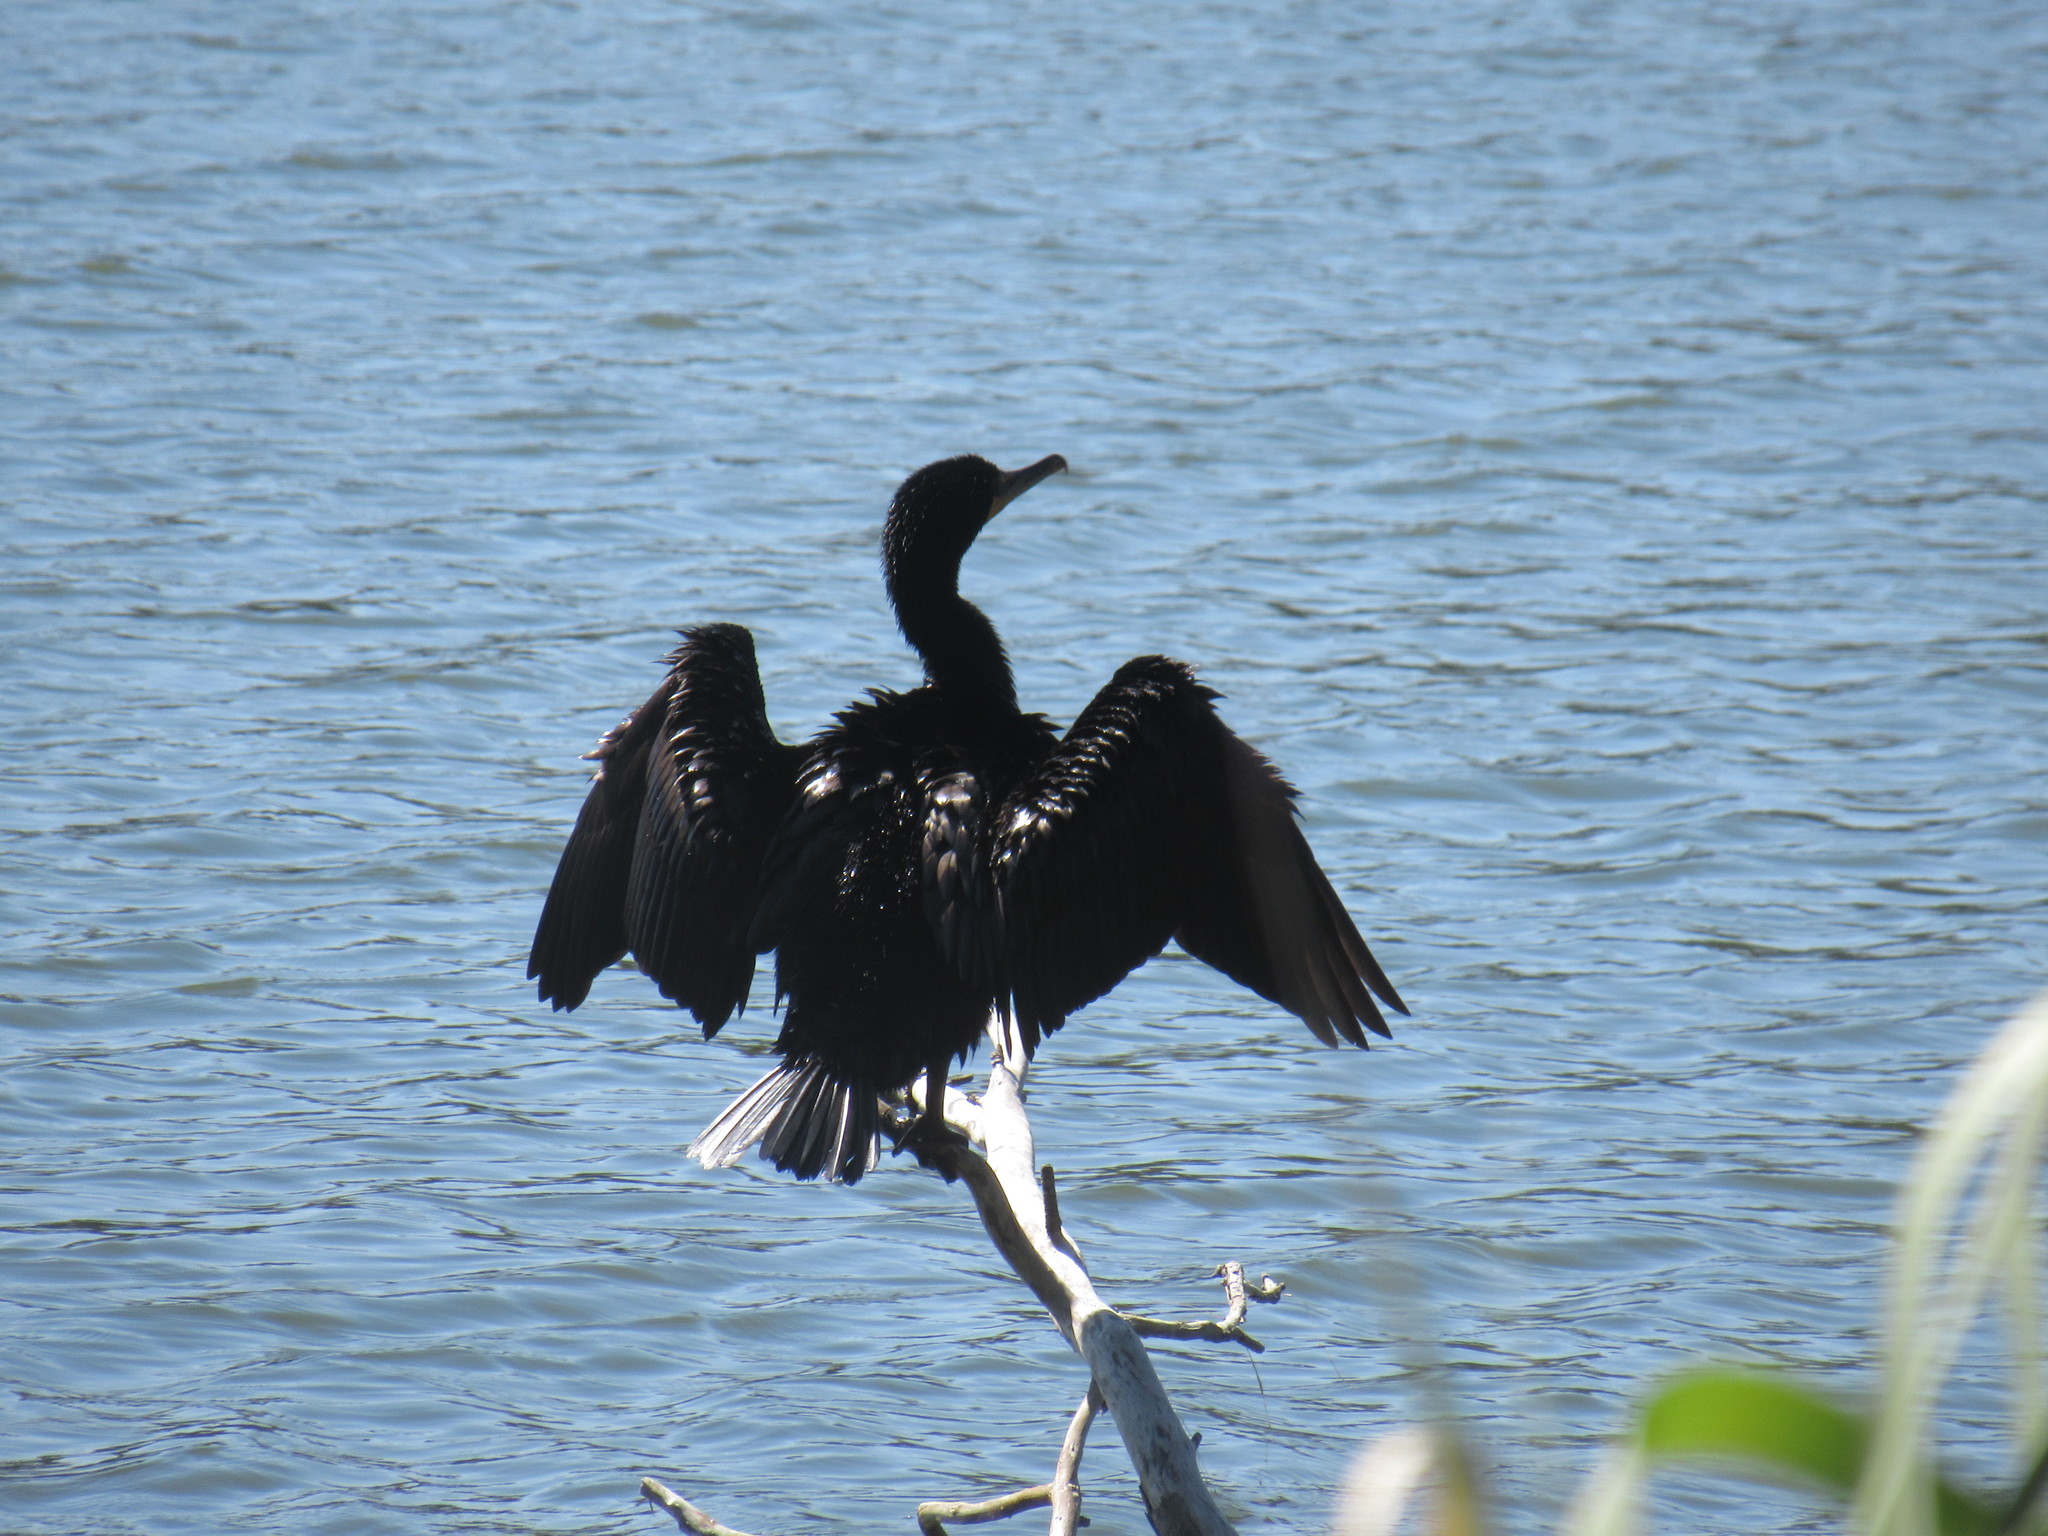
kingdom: Animalia
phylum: Chordata
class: Aves
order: Suliformes
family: Phalacrocoracidae
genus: Phalacrocorax
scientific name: Phalacrocorax auritus
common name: Double-crested cormorant
